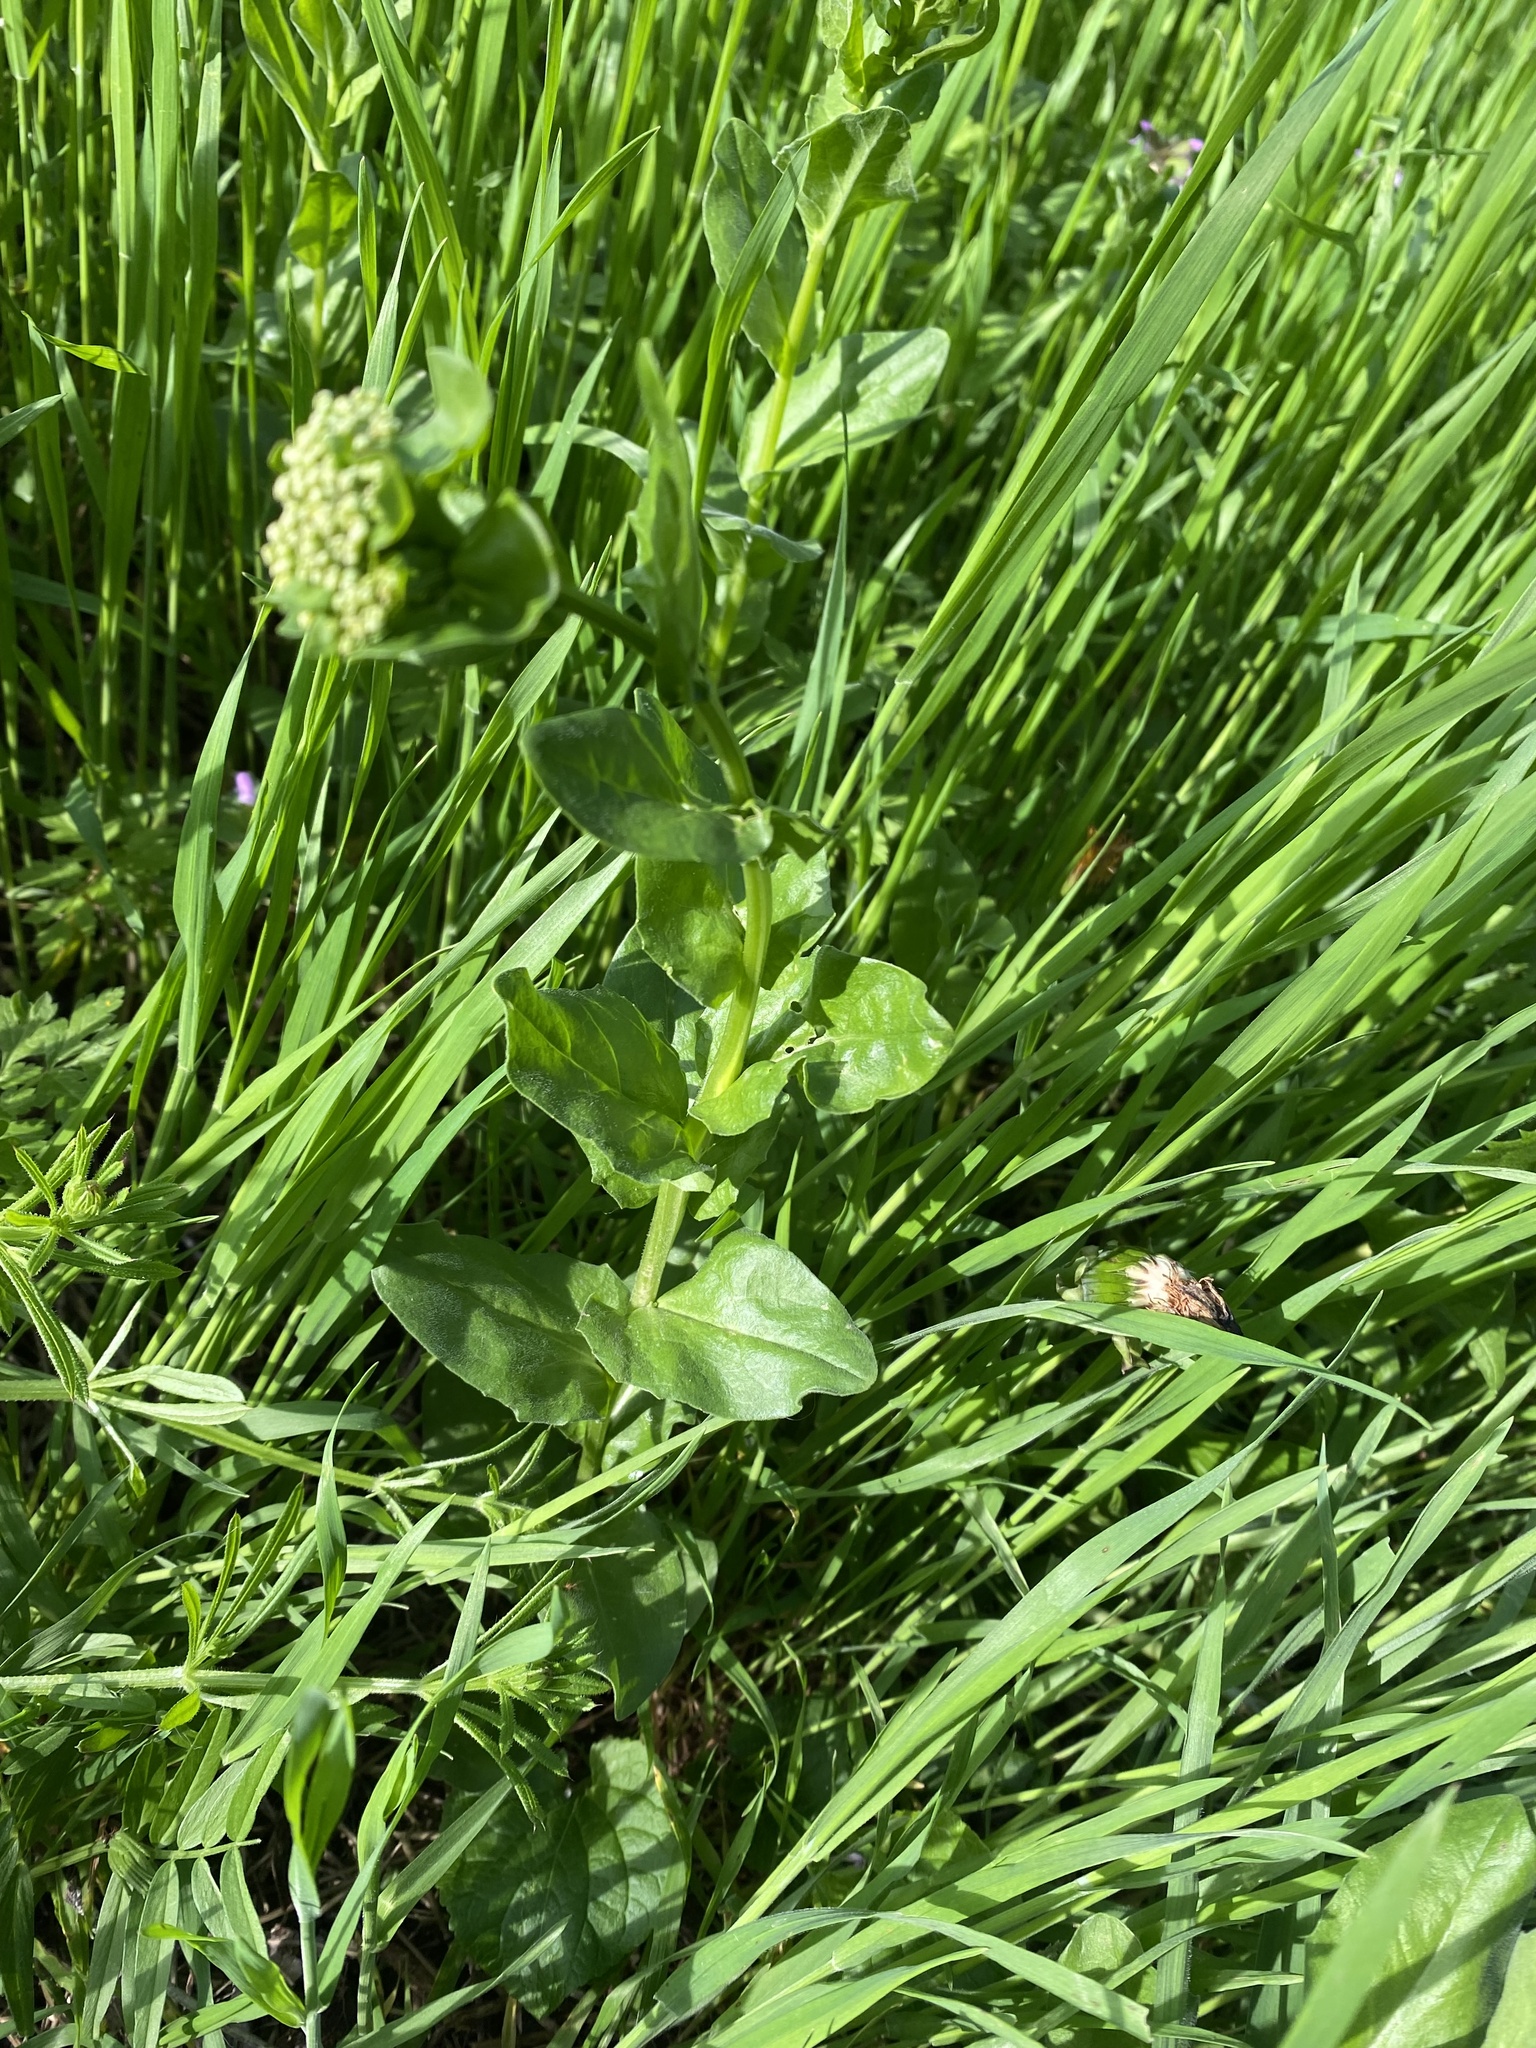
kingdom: Plantae
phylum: Tracheophyta
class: Magnoliopsida
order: Brassicales
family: Brassicaceae
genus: Lepidium
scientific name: Lepidium draba
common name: Hoary cress
